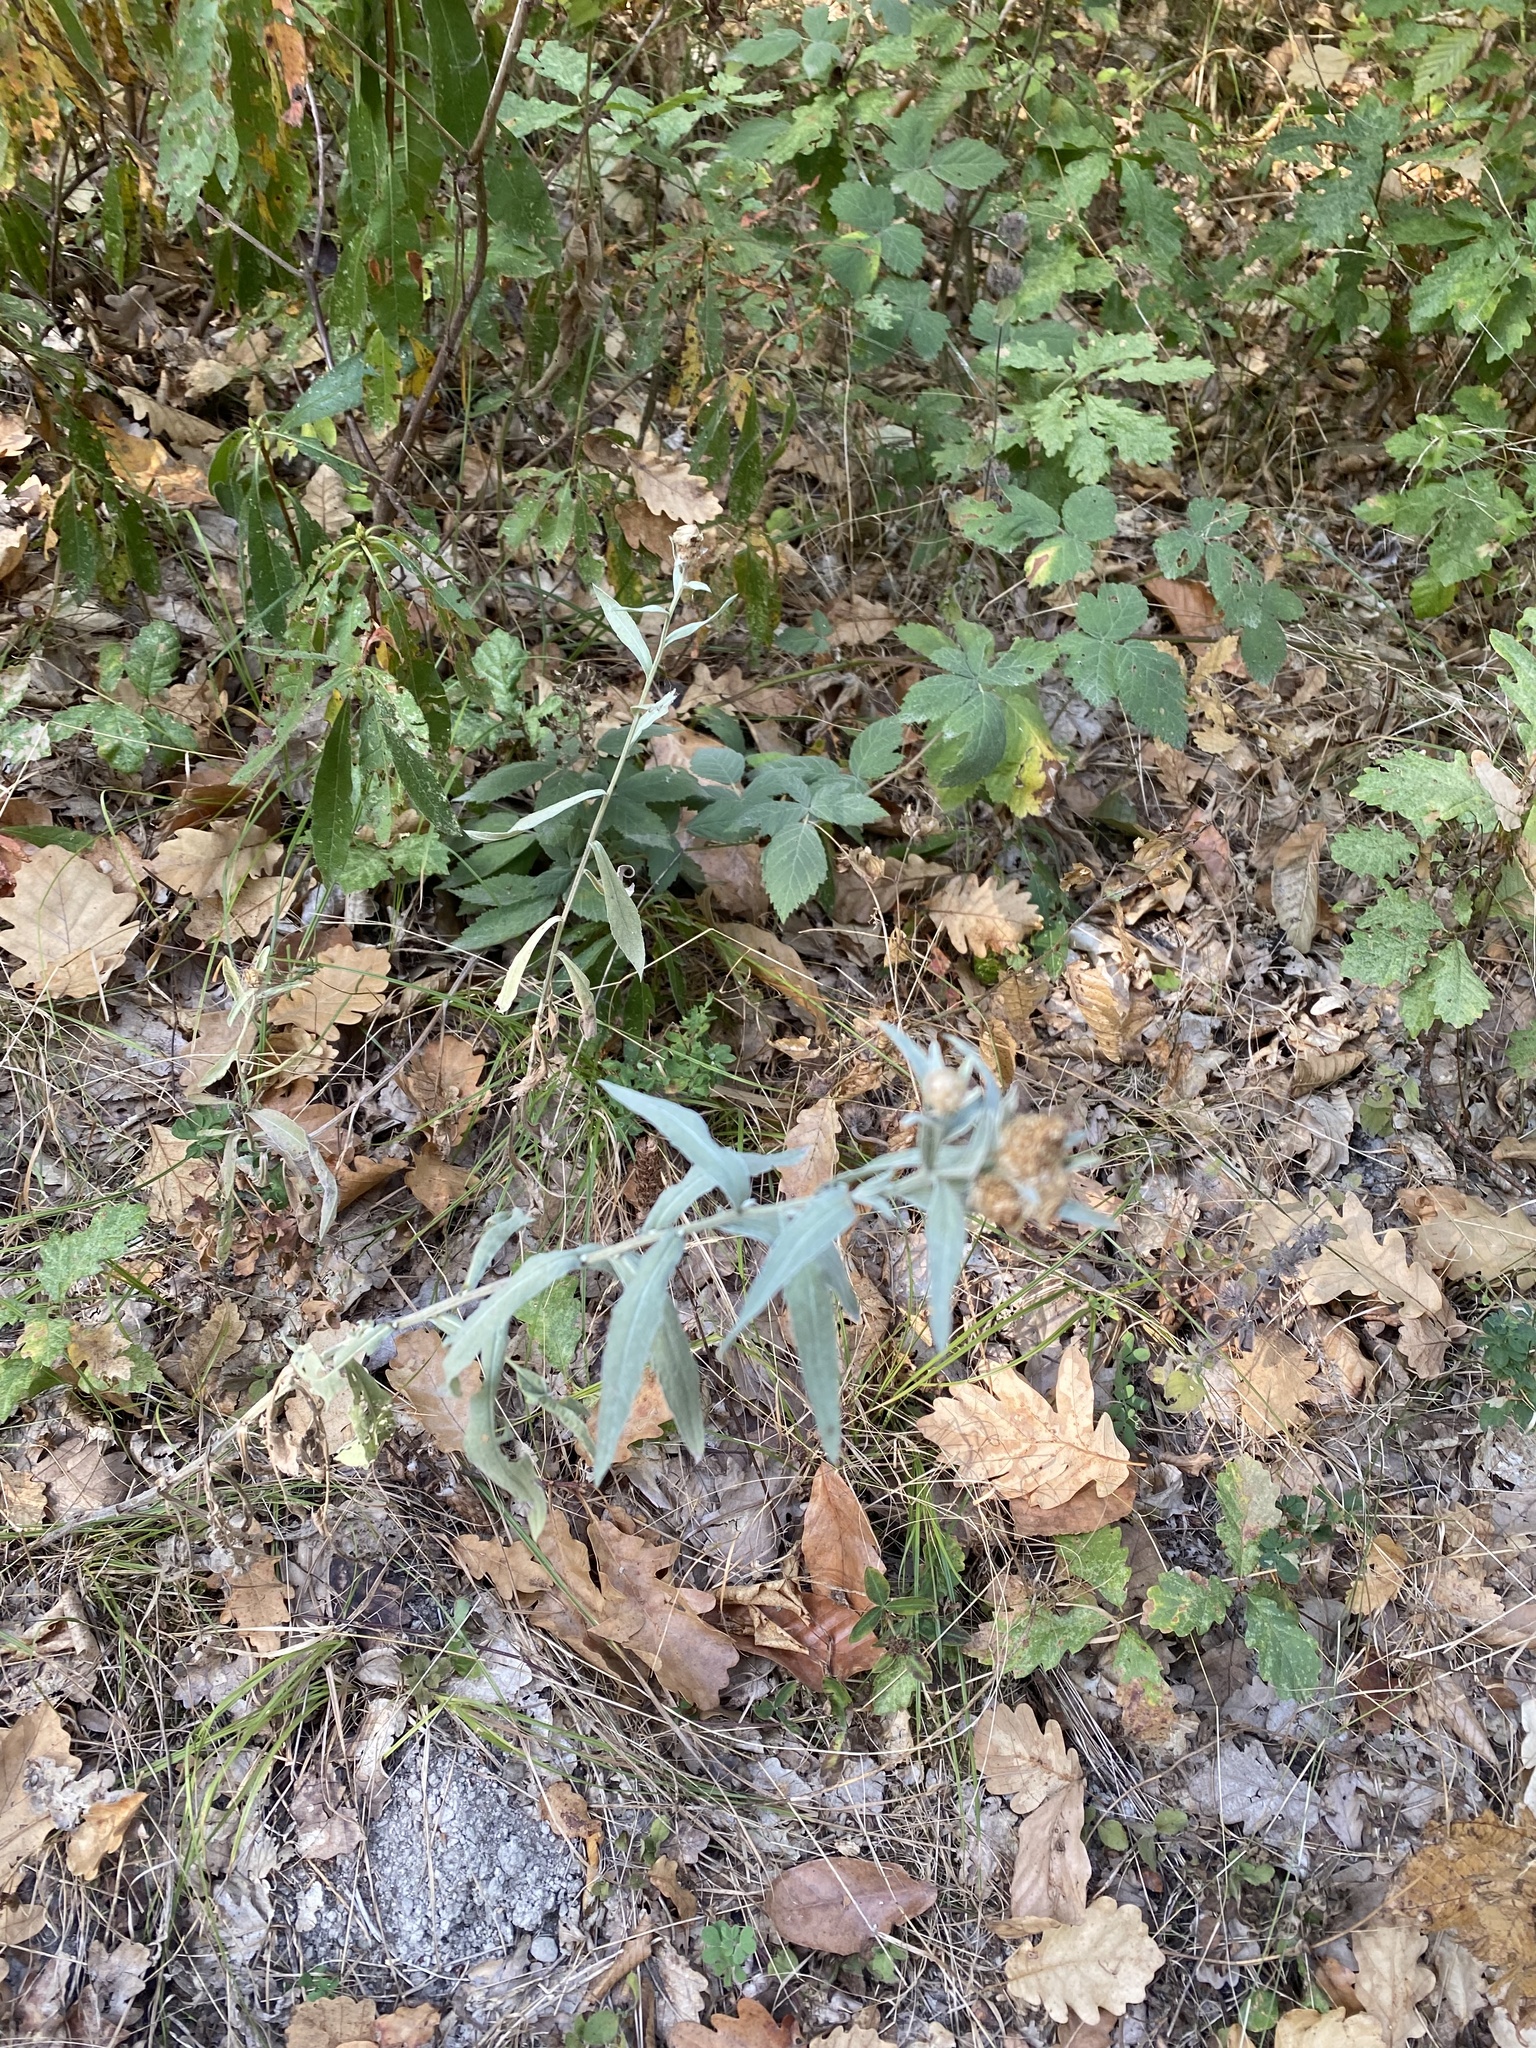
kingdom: Plantae
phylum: Tracheophyta
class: Magnoliopsida
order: Asterales
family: Asteraceae
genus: Centaurea
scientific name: Centaurea jacea
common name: Brown knapweed
